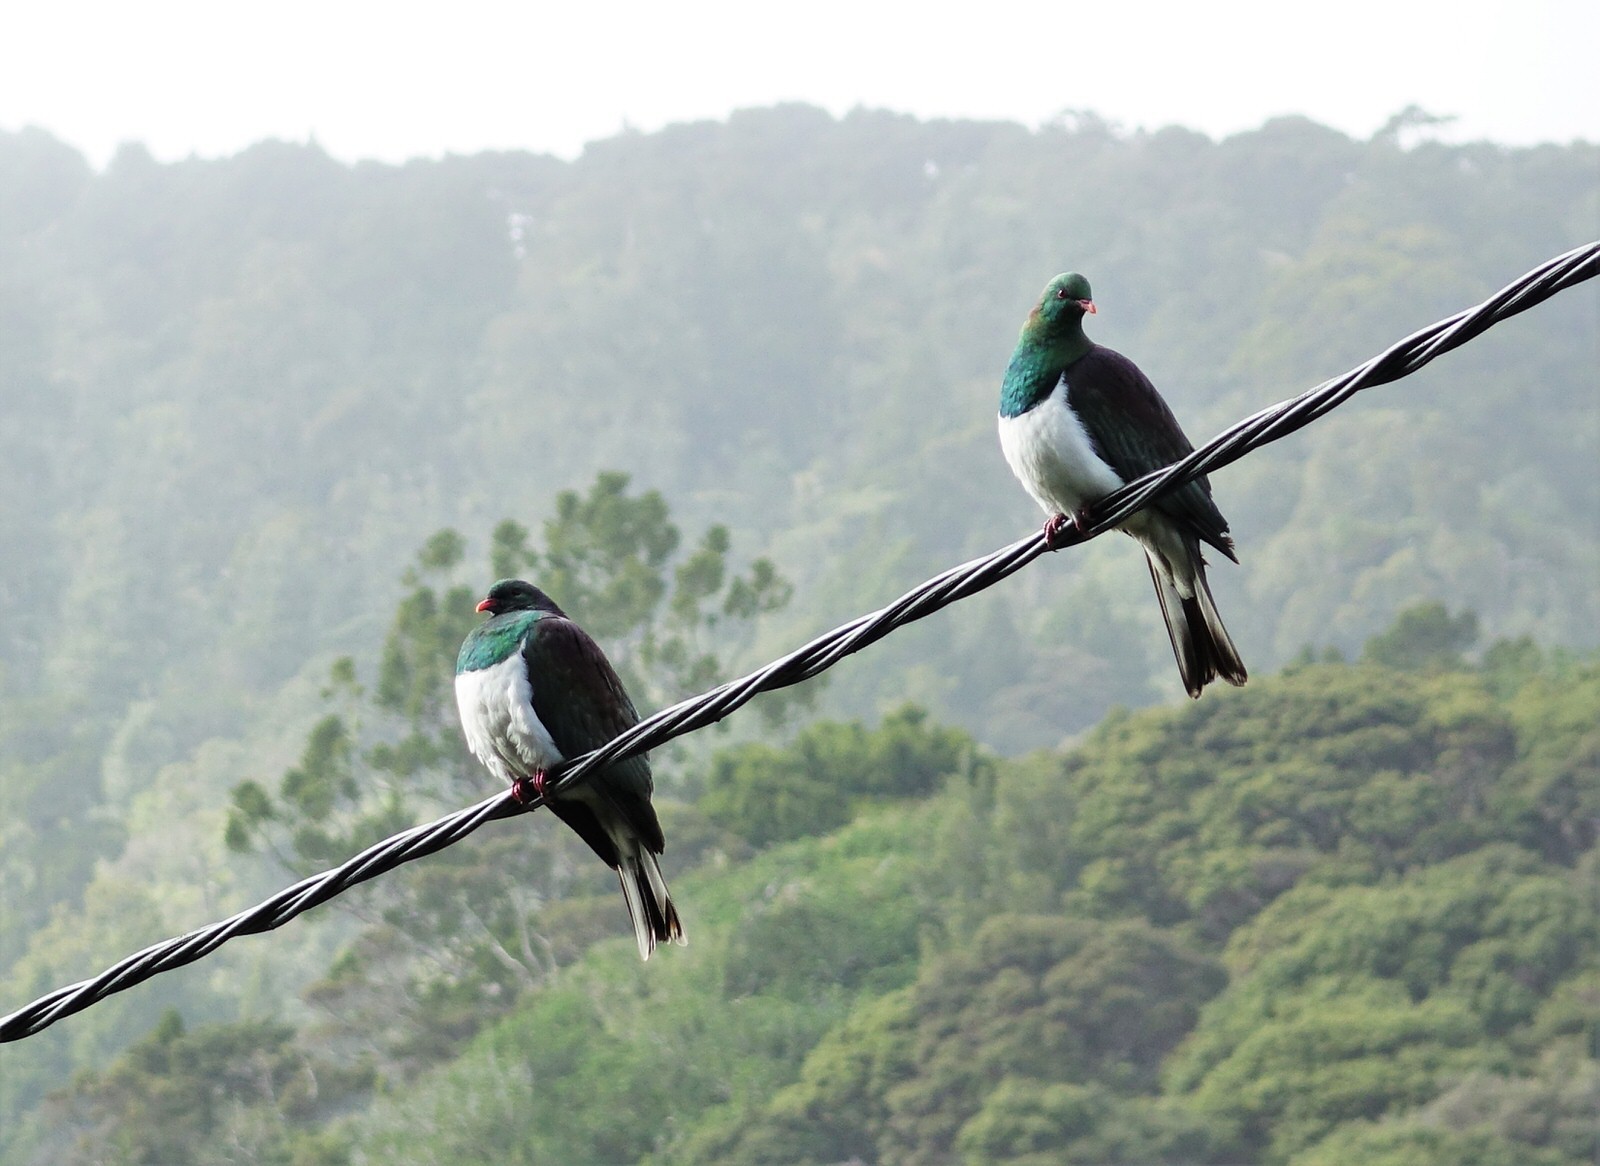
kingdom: Animalia
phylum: Chordata
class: Aves
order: Columbiformes
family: Columbidae
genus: Hemiphaga
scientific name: Hemiphaga novaeseelandiae
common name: New zealand pigeon
